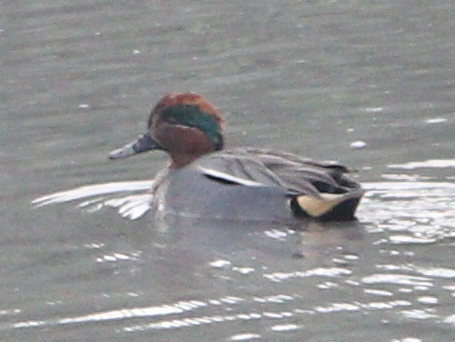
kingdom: Animalia
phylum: Chordata
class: Aves
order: Anseriformes
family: Anatidae
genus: Anas
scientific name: Anas crecca
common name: Eurasian teal
